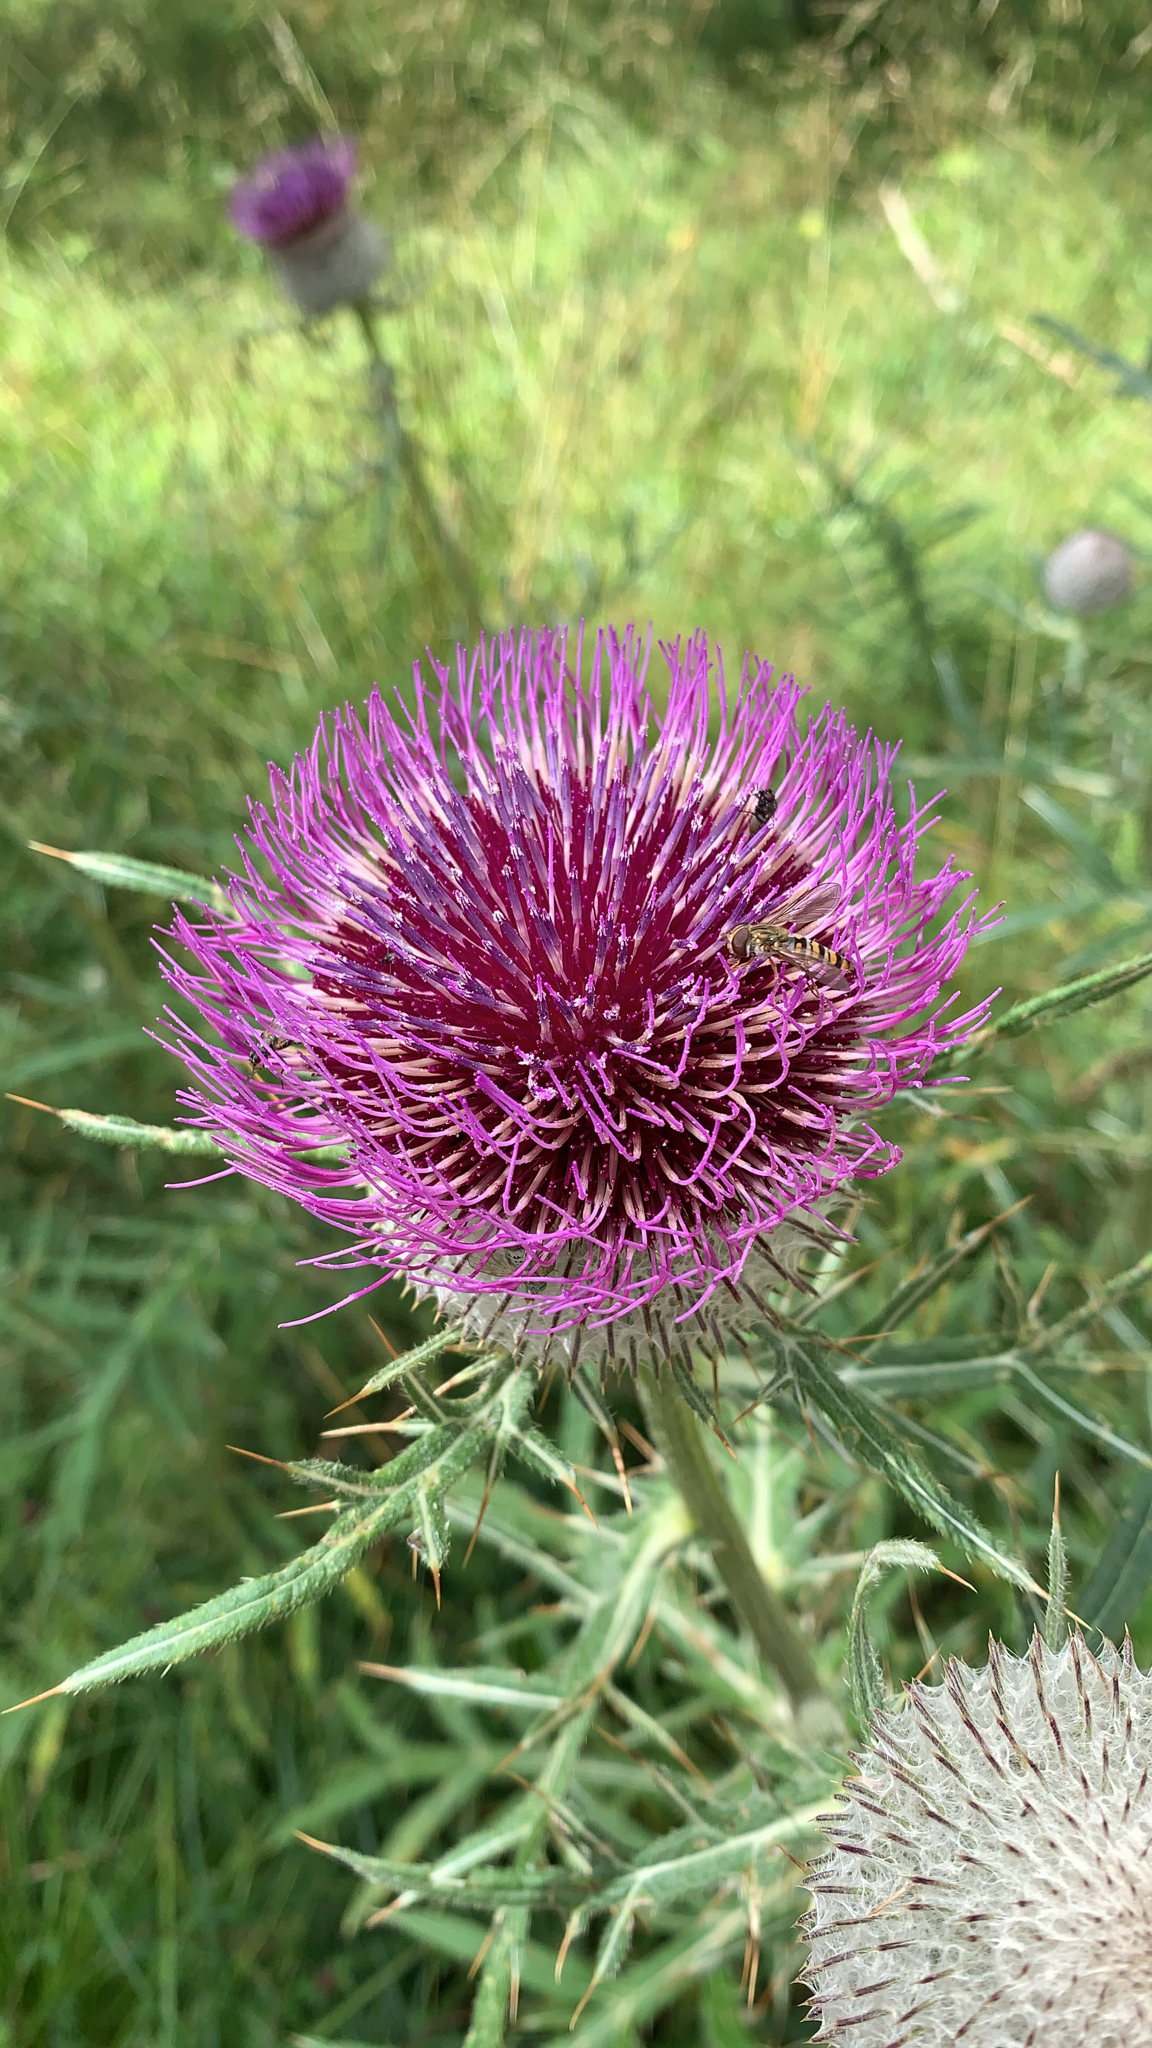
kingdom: Plantae
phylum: Tracheophyta
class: Magnoliopsida
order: Asterales
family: Asteraceae
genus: Lophiolepis
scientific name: Lophiolepis eriophora
